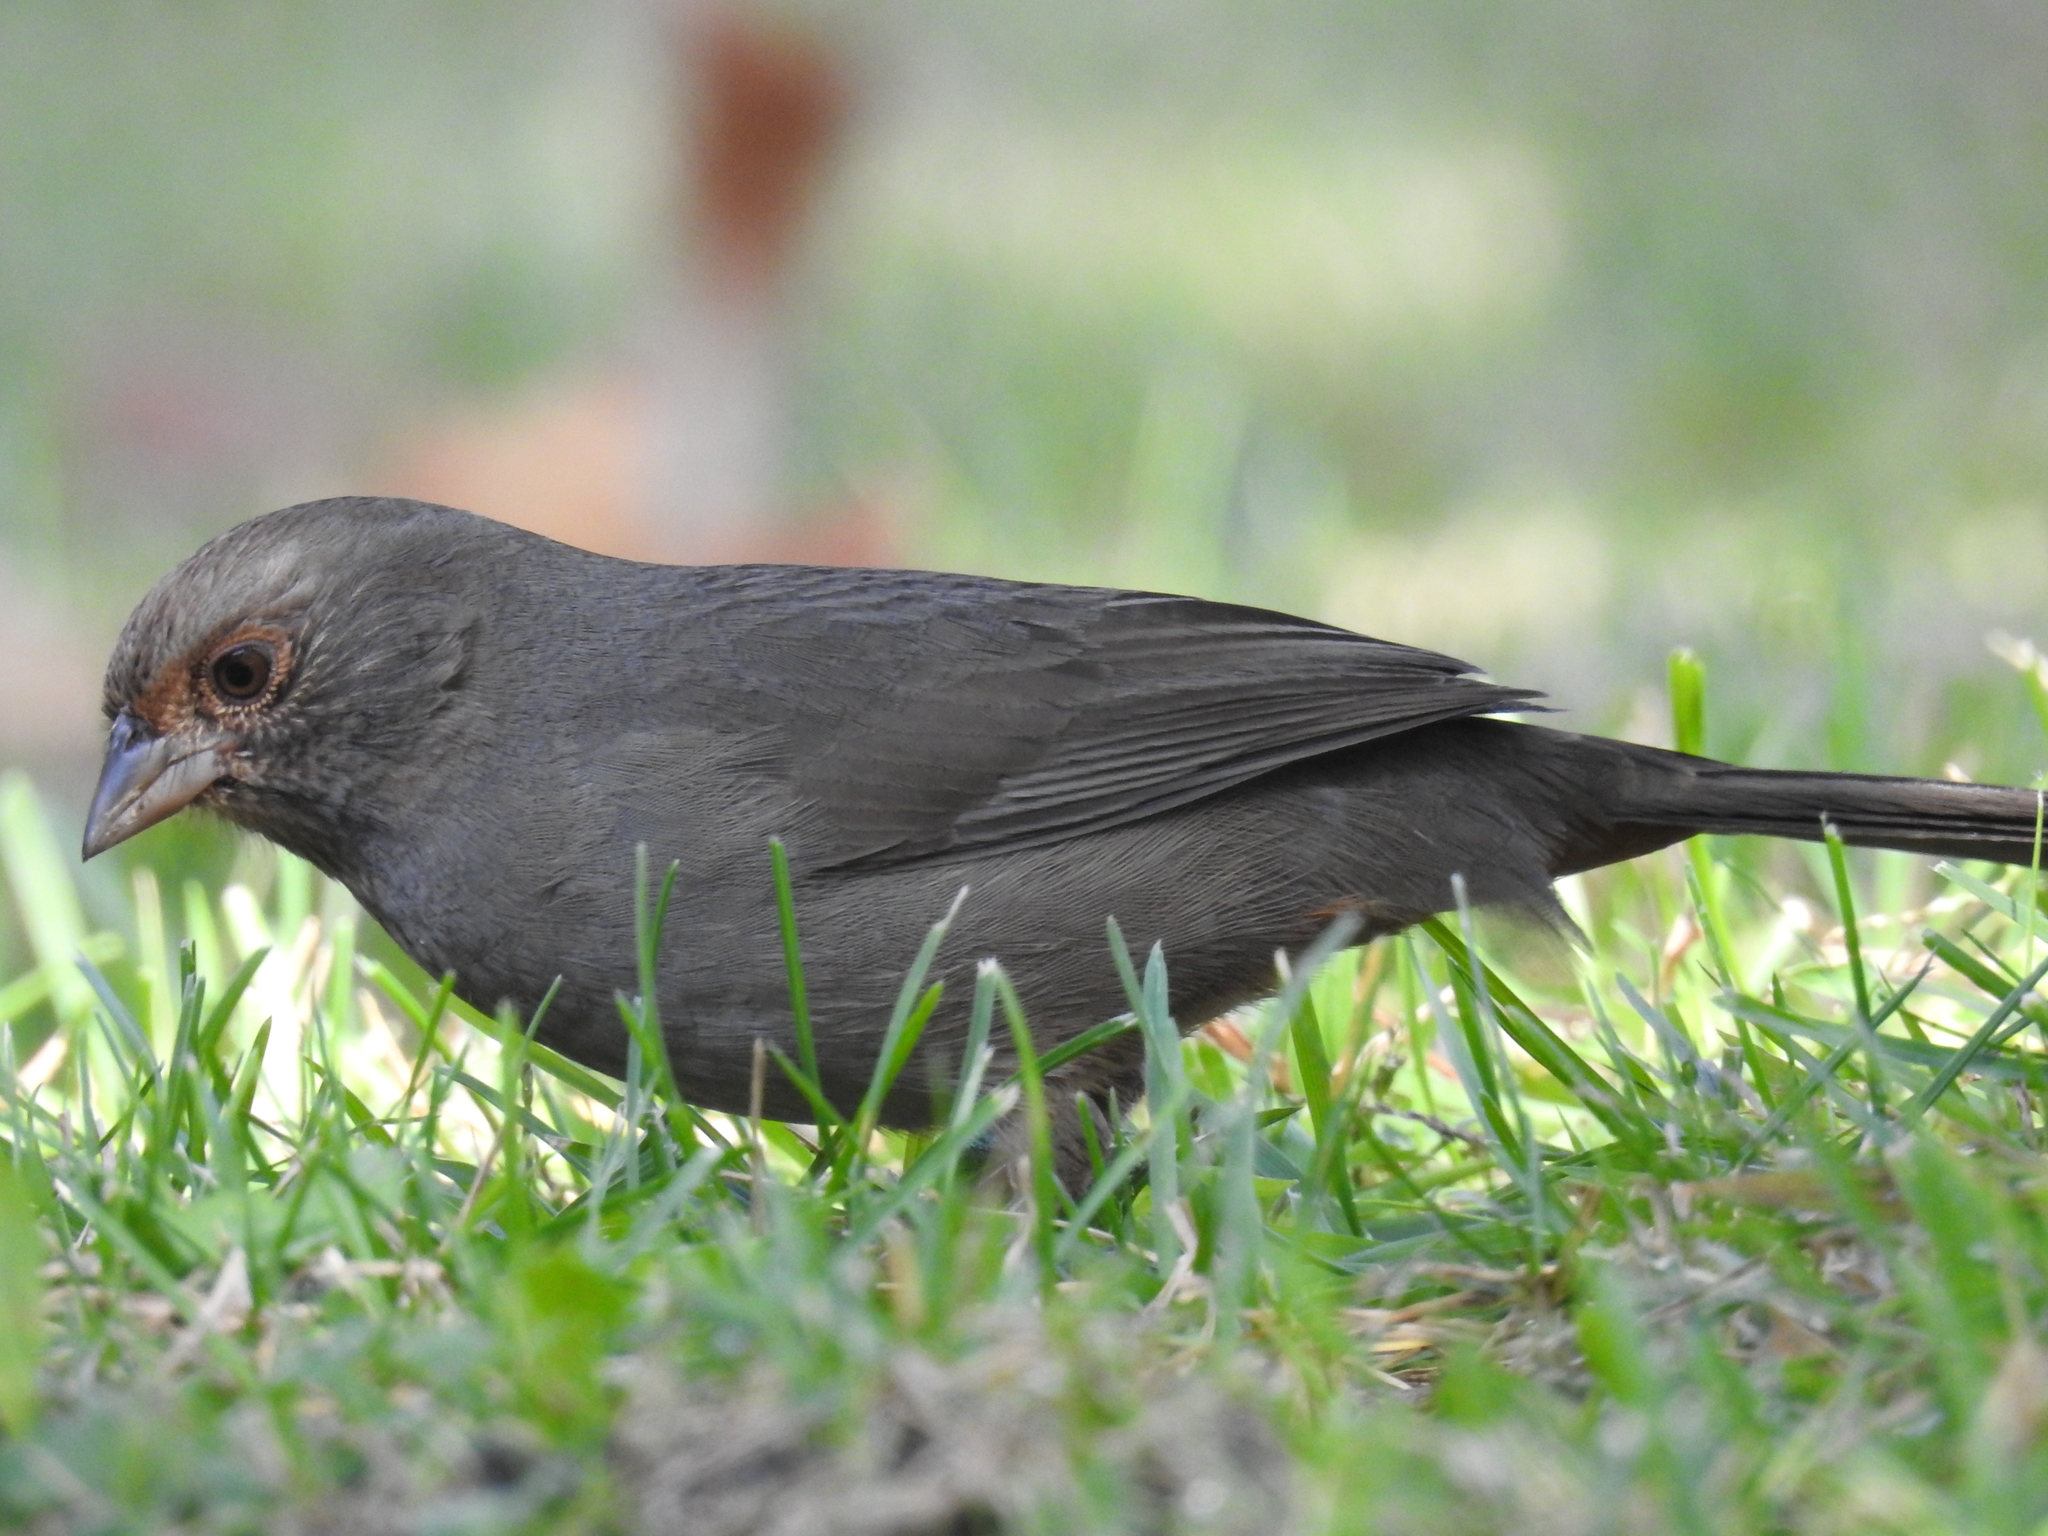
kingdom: Animalia
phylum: Chordata
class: Aves
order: Passeriformes
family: Passerellidae
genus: Melozone
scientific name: Melozone crissalis
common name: California towhee
